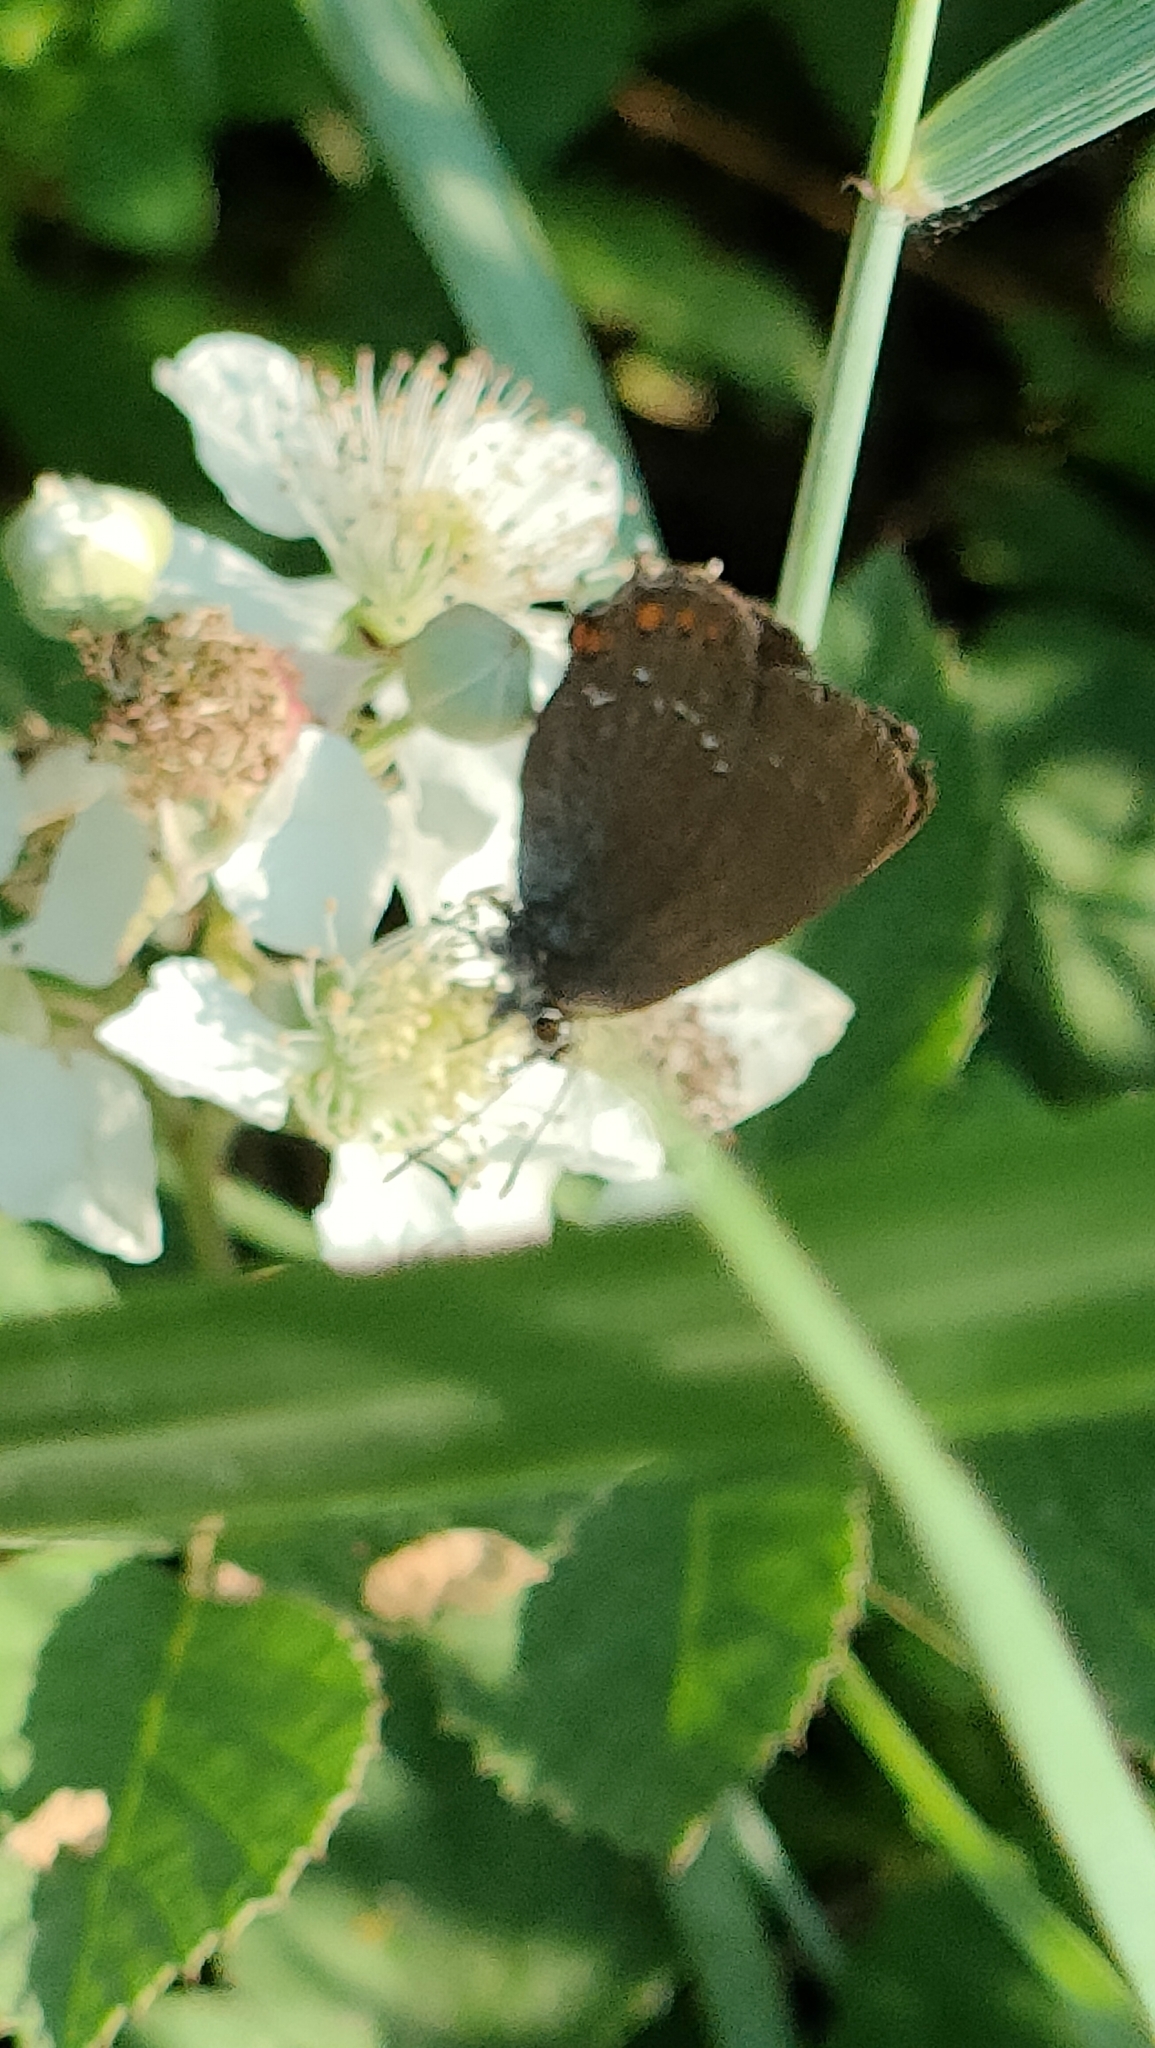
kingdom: Animalia
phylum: Arthropoda
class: Insecta
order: Lepidoptera
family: Lycaenidae
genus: Nordmannia
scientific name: Nordmannia ilicis
